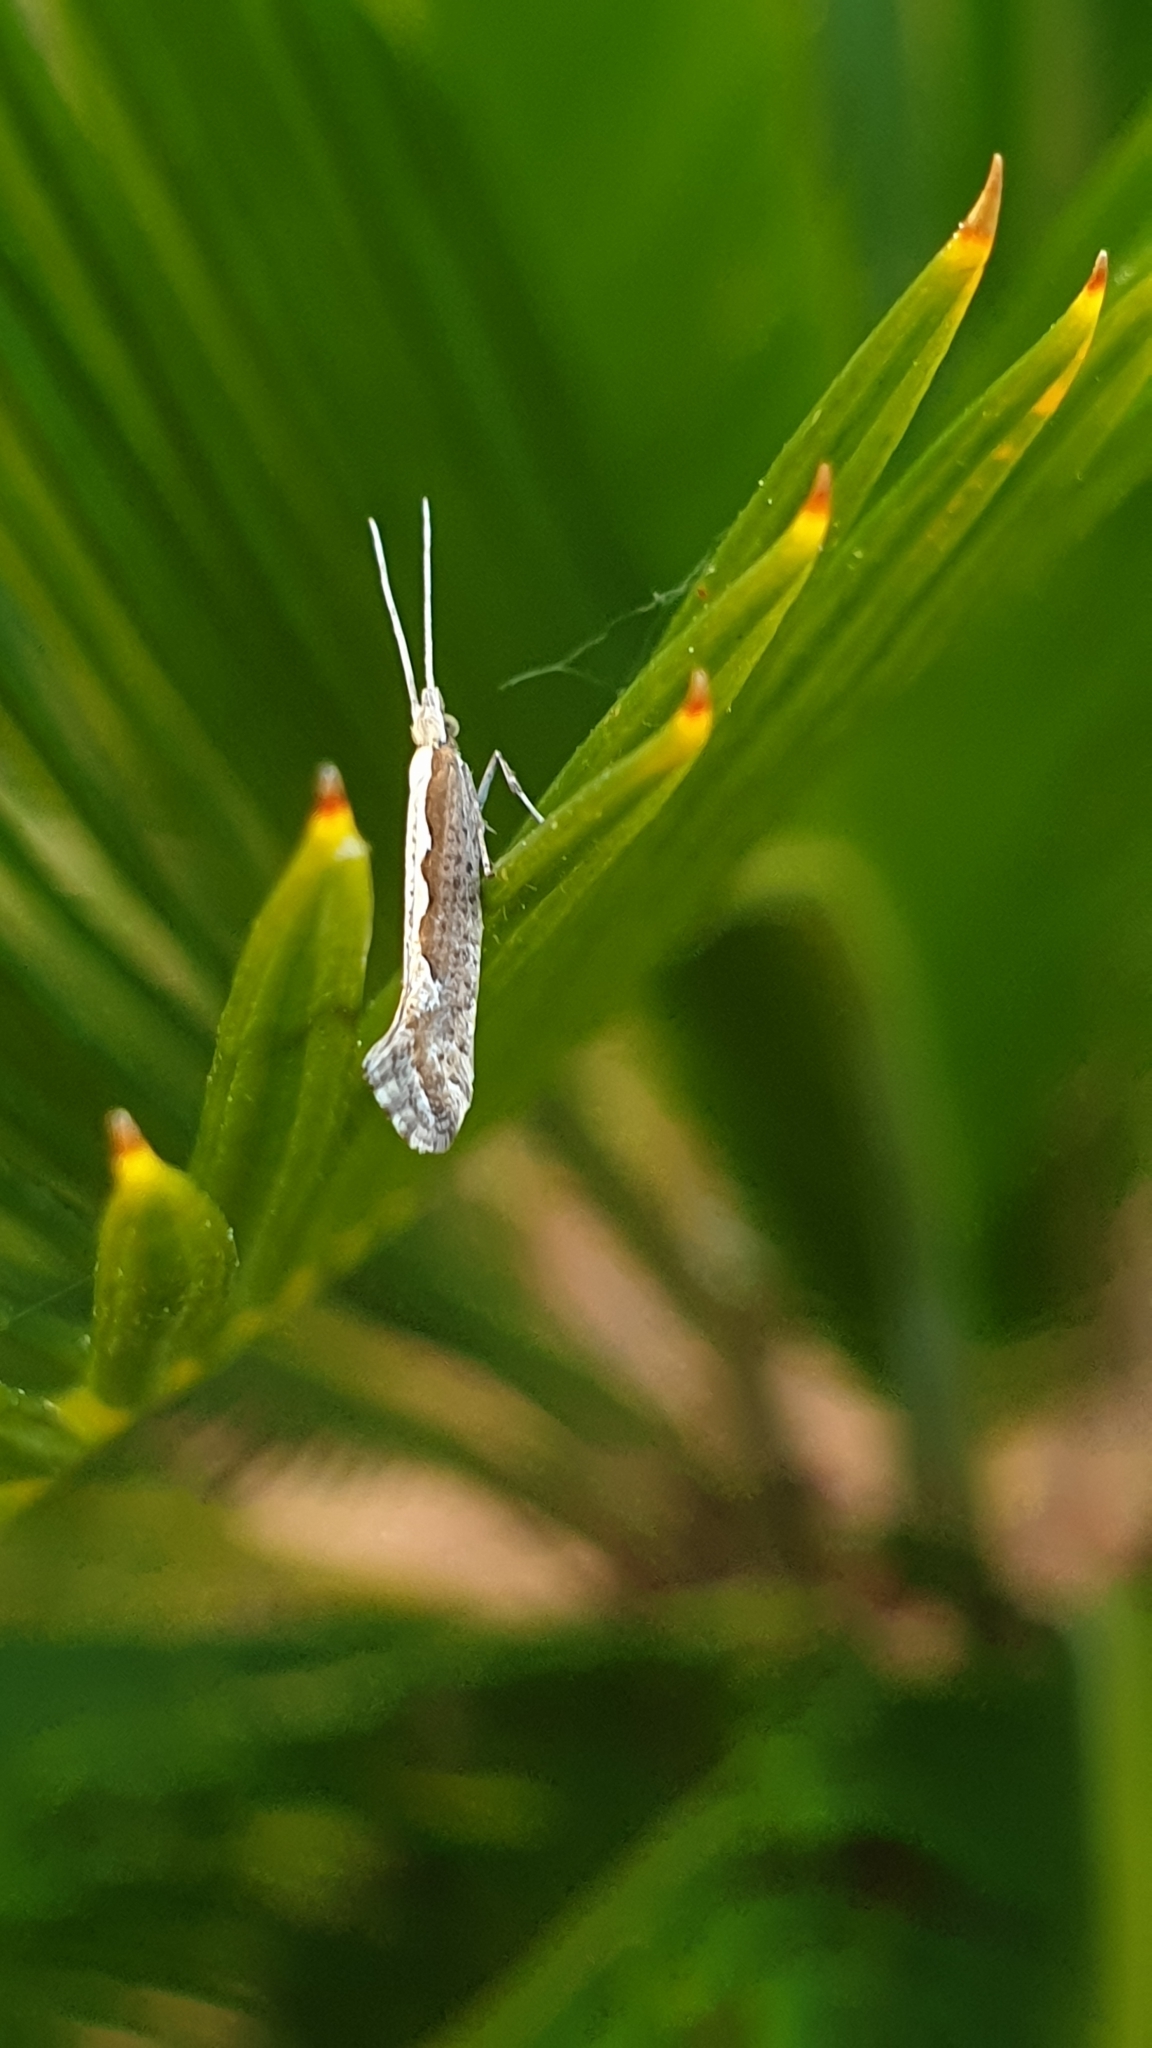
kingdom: Animalia
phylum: Arthropoda
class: Insecta
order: Lepidoptera
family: Plutellidae
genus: Plutella
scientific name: Plutella xylostella
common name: Diamond-back moth
